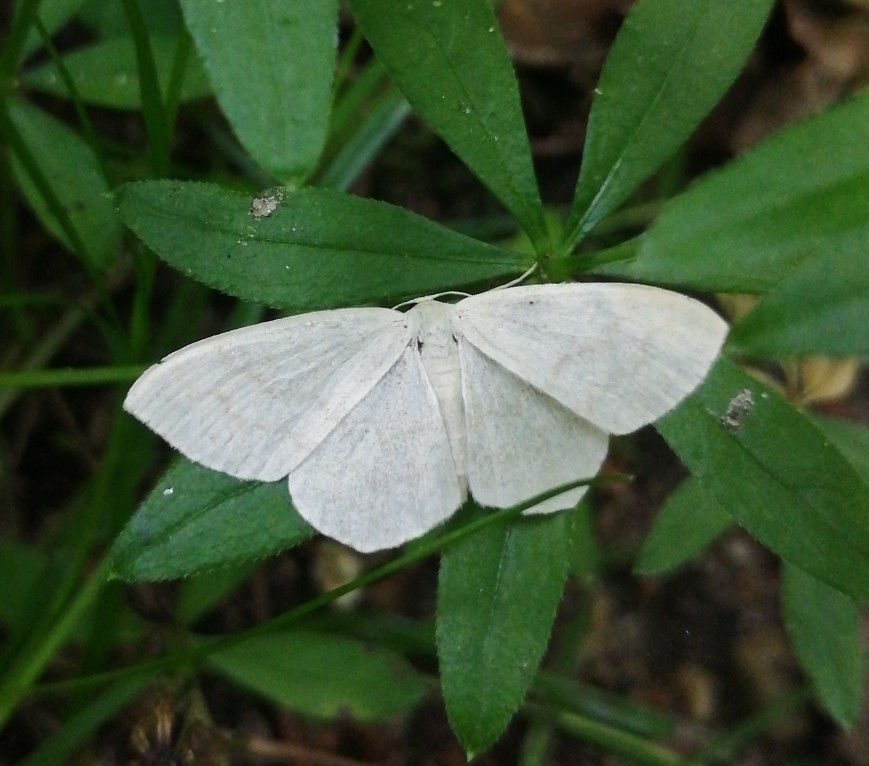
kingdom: Animalia
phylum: Arthropoda
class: Insecta
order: Lepidoptera
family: Geometridae
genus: Scopula
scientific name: Scopula floslactata
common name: Cream wave
